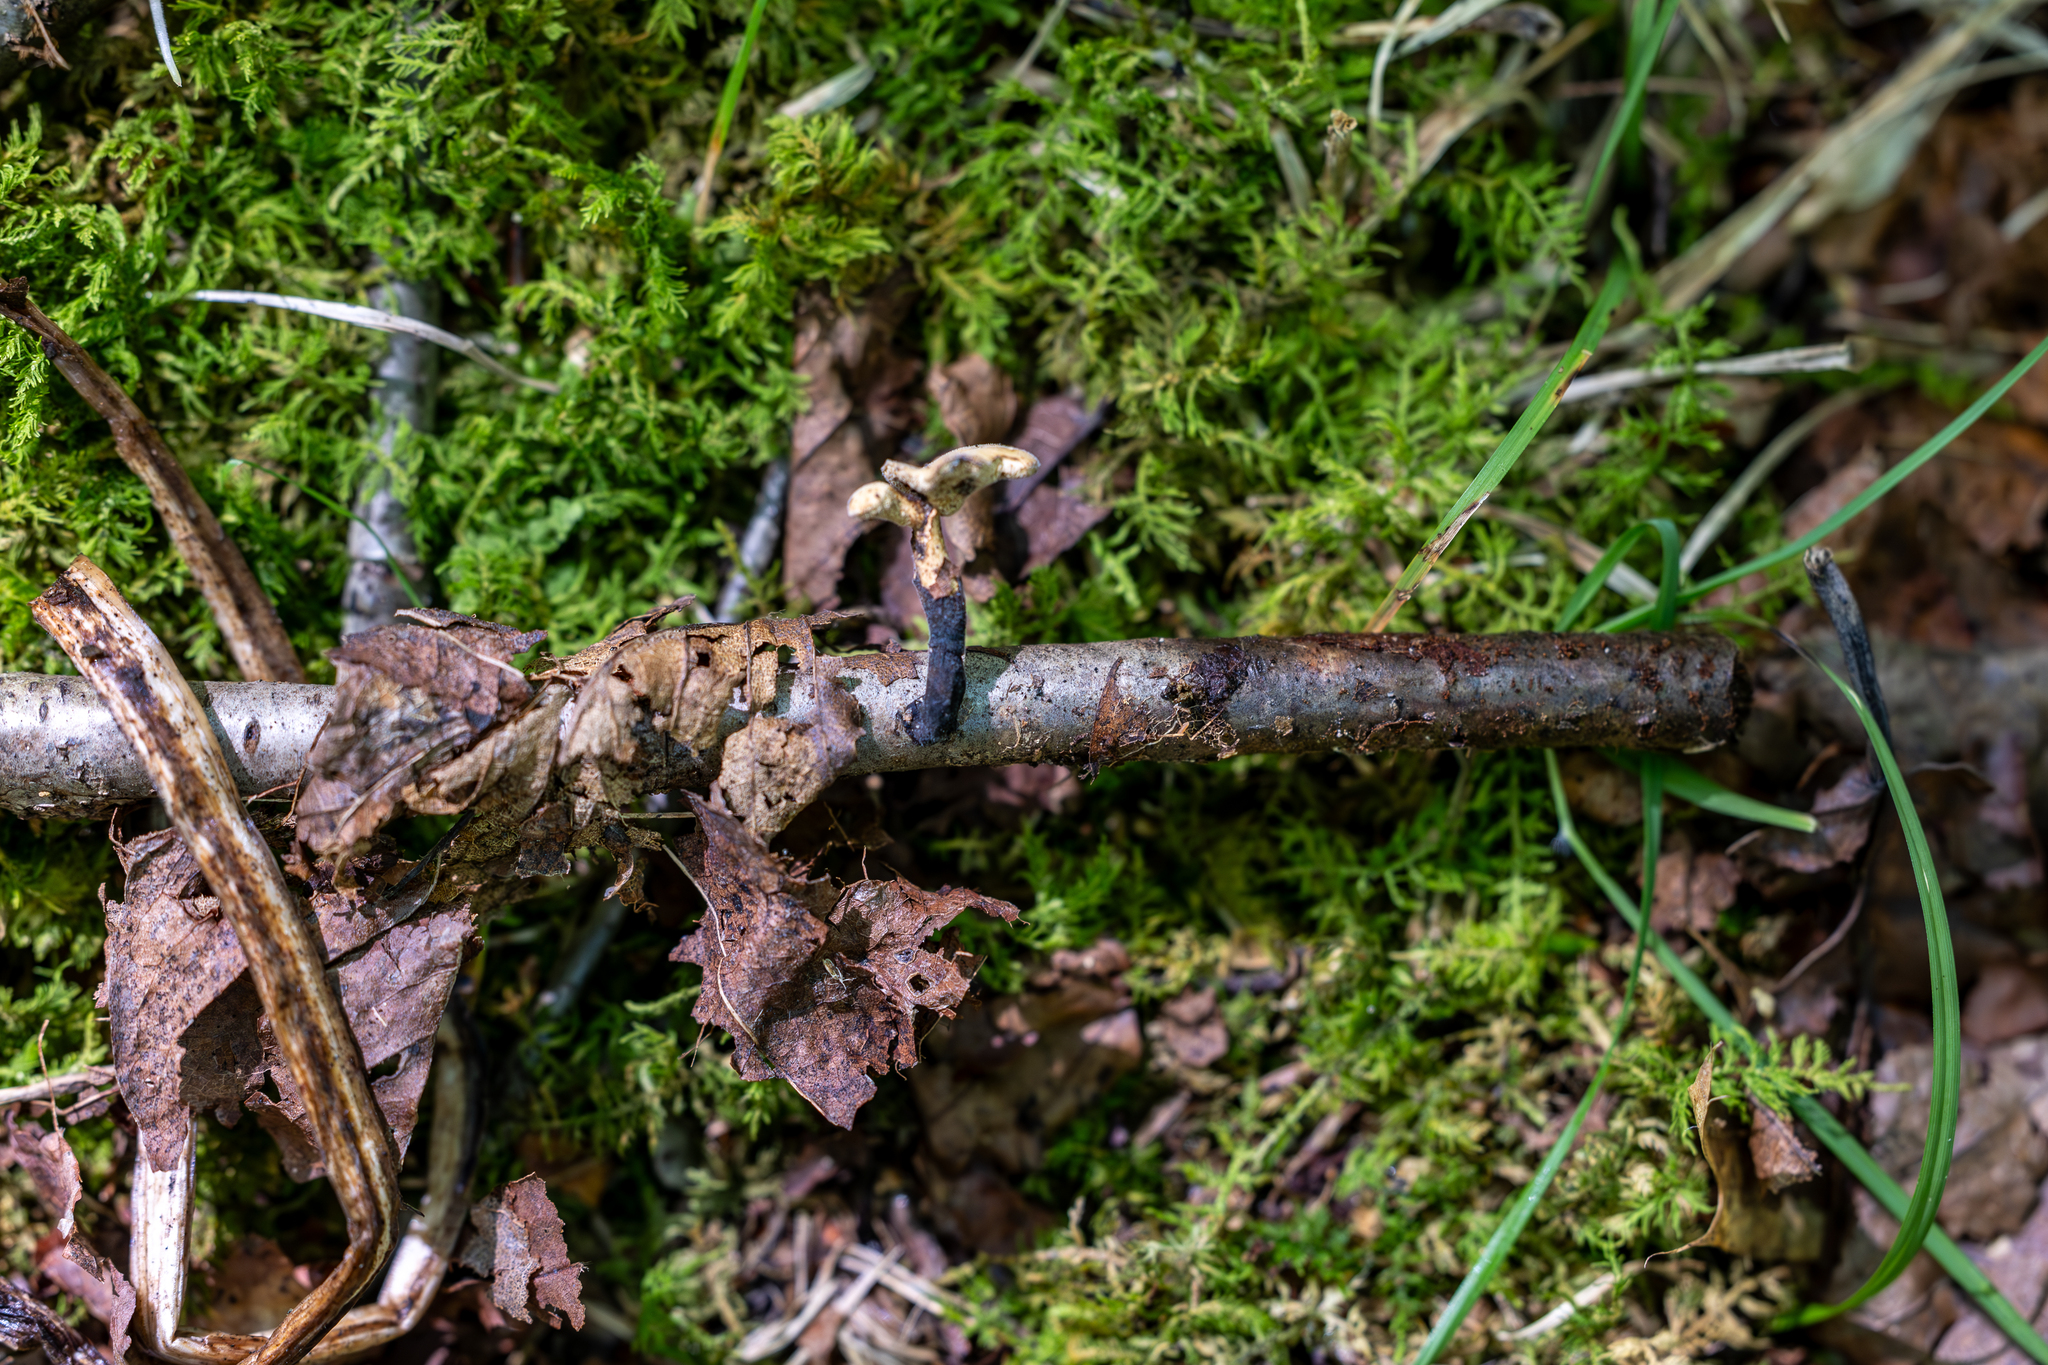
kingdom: Fungi
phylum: Basidiomycota
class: Agaricomycetes
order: Polyporales
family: Polyporaceae
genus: Cerioporus
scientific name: Cerioporus varius
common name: Elegant polypore
